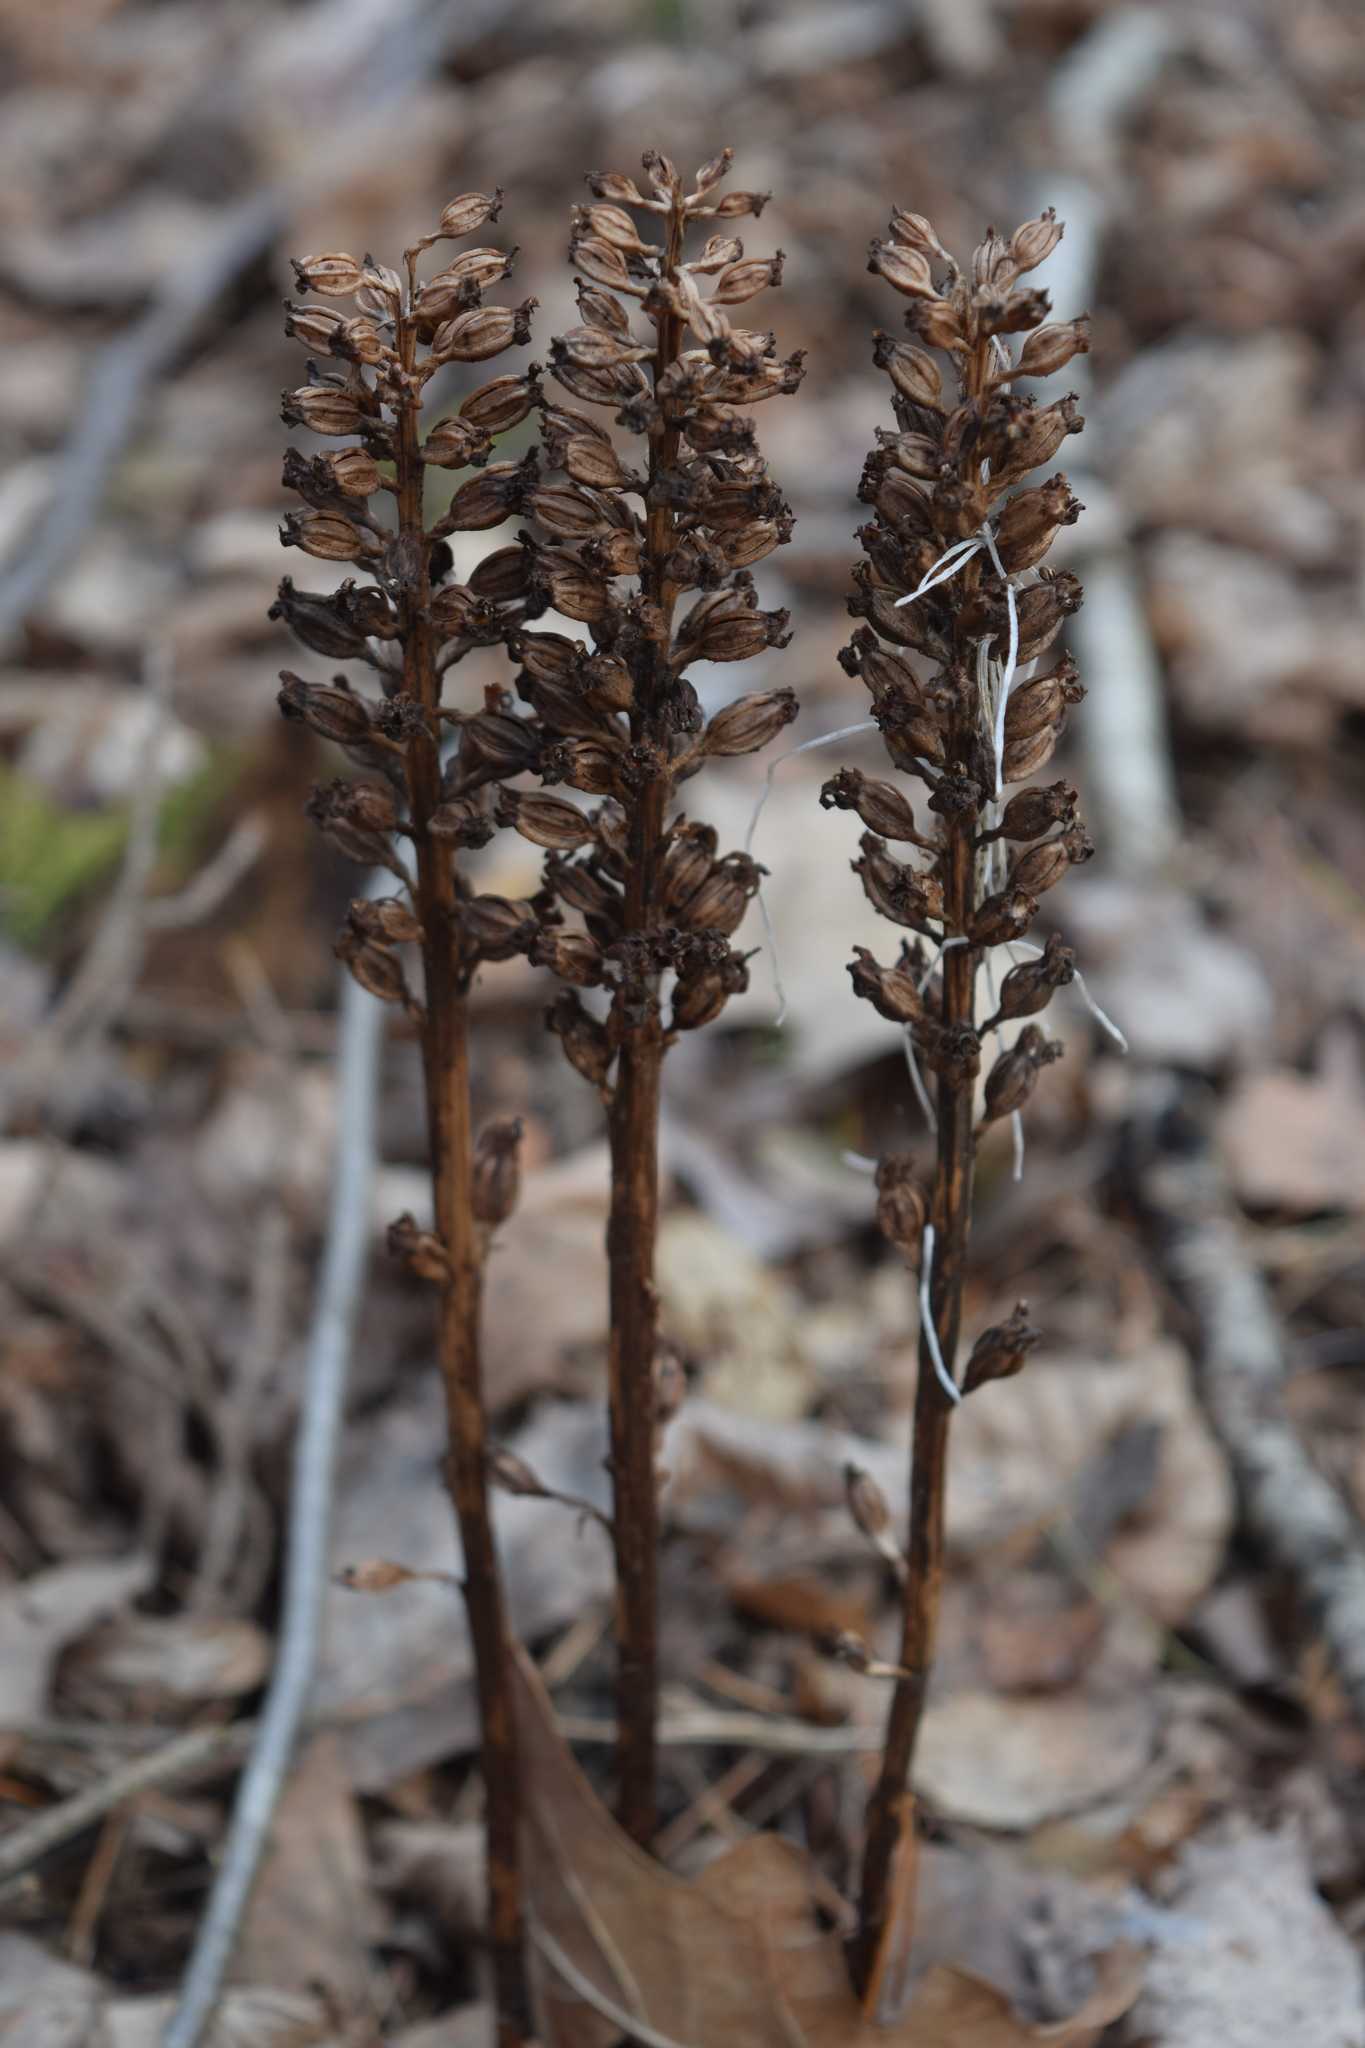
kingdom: Plantae
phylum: Tracheophyta
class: Liliopsida
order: Asparagales
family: Orchidaceae
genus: Neottia
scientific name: Neottia nidus-avis
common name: Bird's-nest orchid
